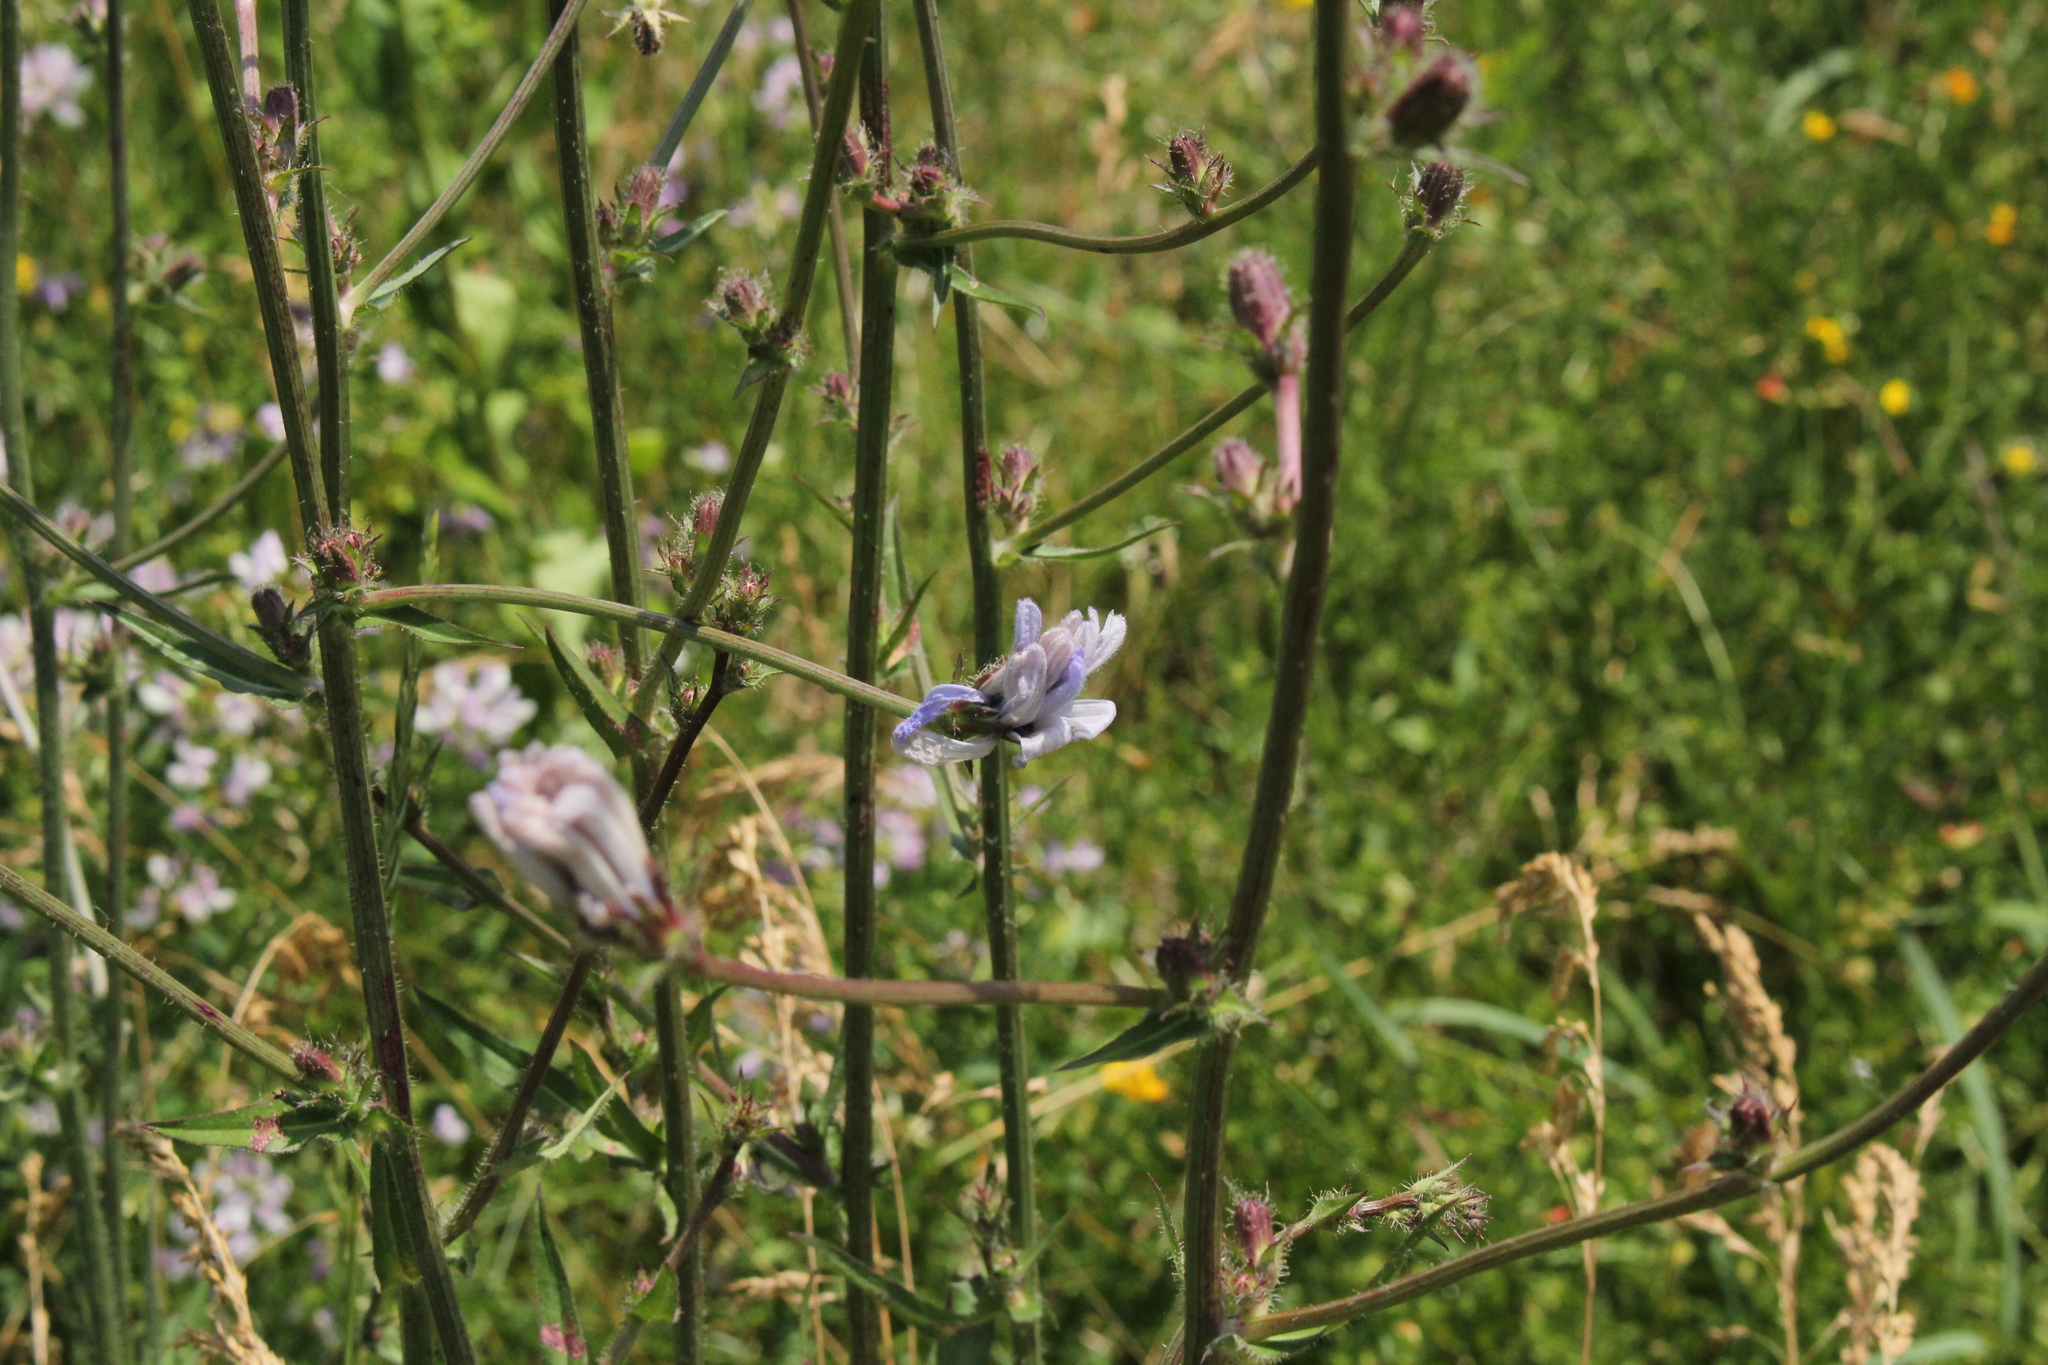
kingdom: Plantae
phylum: Tracheophyta
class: Magnoliopsida
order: Asterales
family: Asteraceae
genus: Cichorium
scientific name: Cichorium intybus
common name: Chicory
